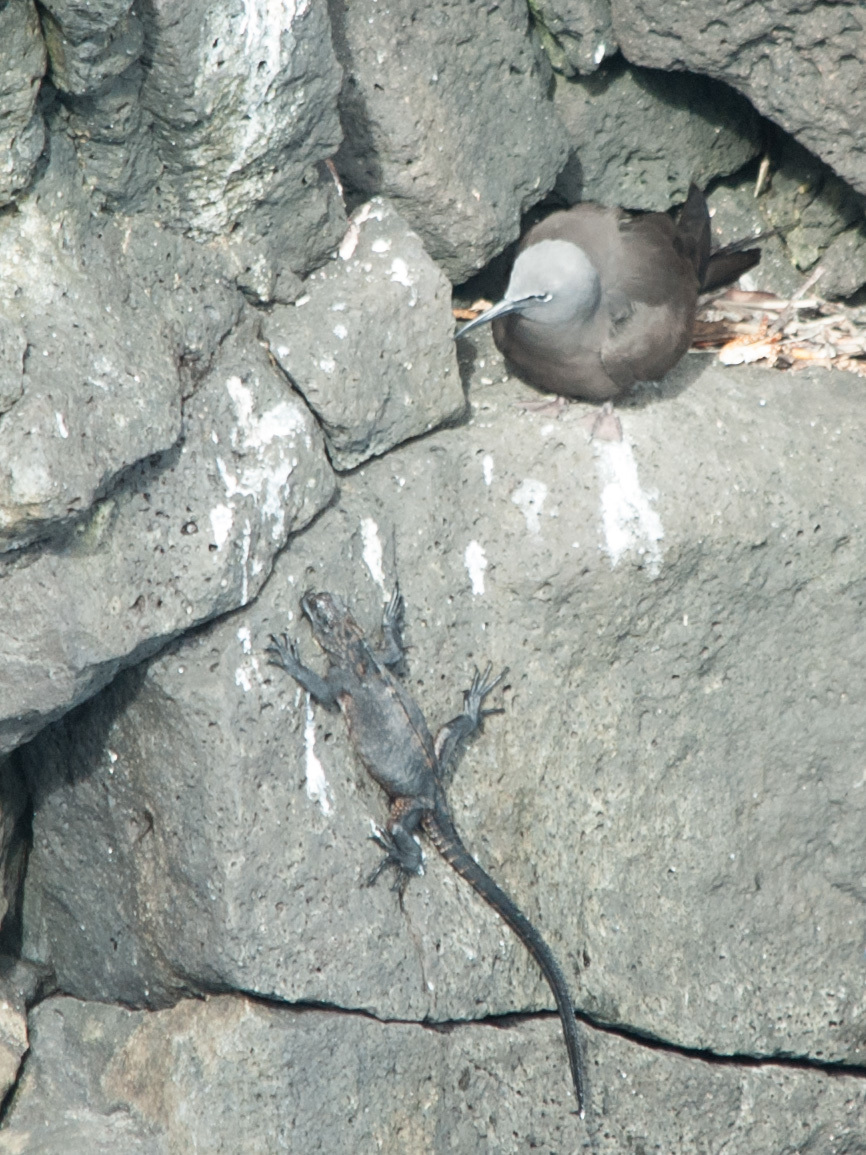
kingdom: Animalia
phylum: Chordata
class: Aves
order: Charadriiformes
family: Laridae
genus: Anous
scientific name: Anous stolidus
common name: Brown noddy
